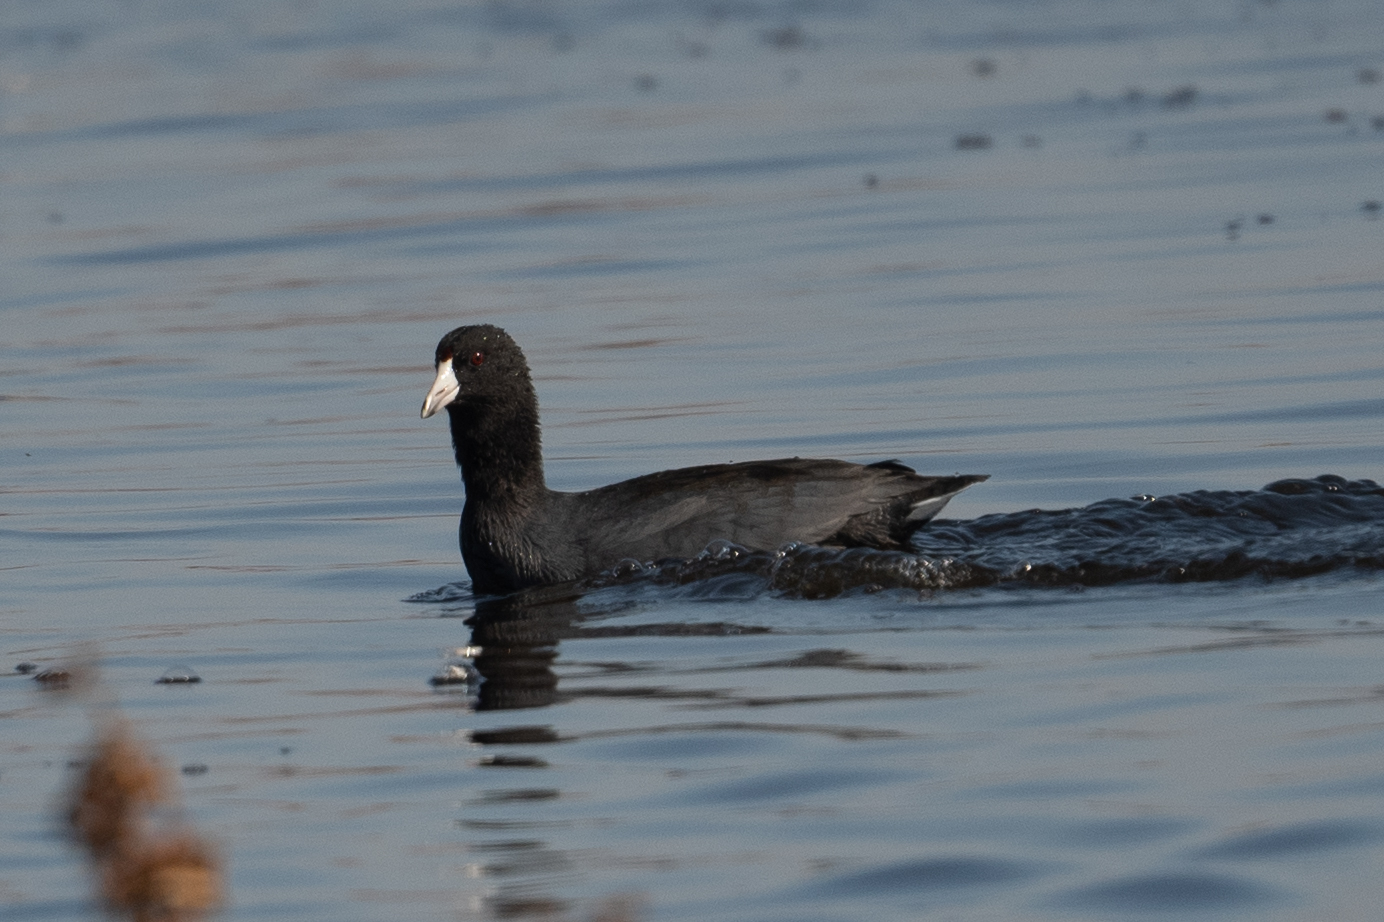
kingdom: Animalia
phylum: Chordata
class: Aves
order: Gruiformes
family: Rallidae
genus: Fulica
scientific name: Fulica americana
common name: American coot
